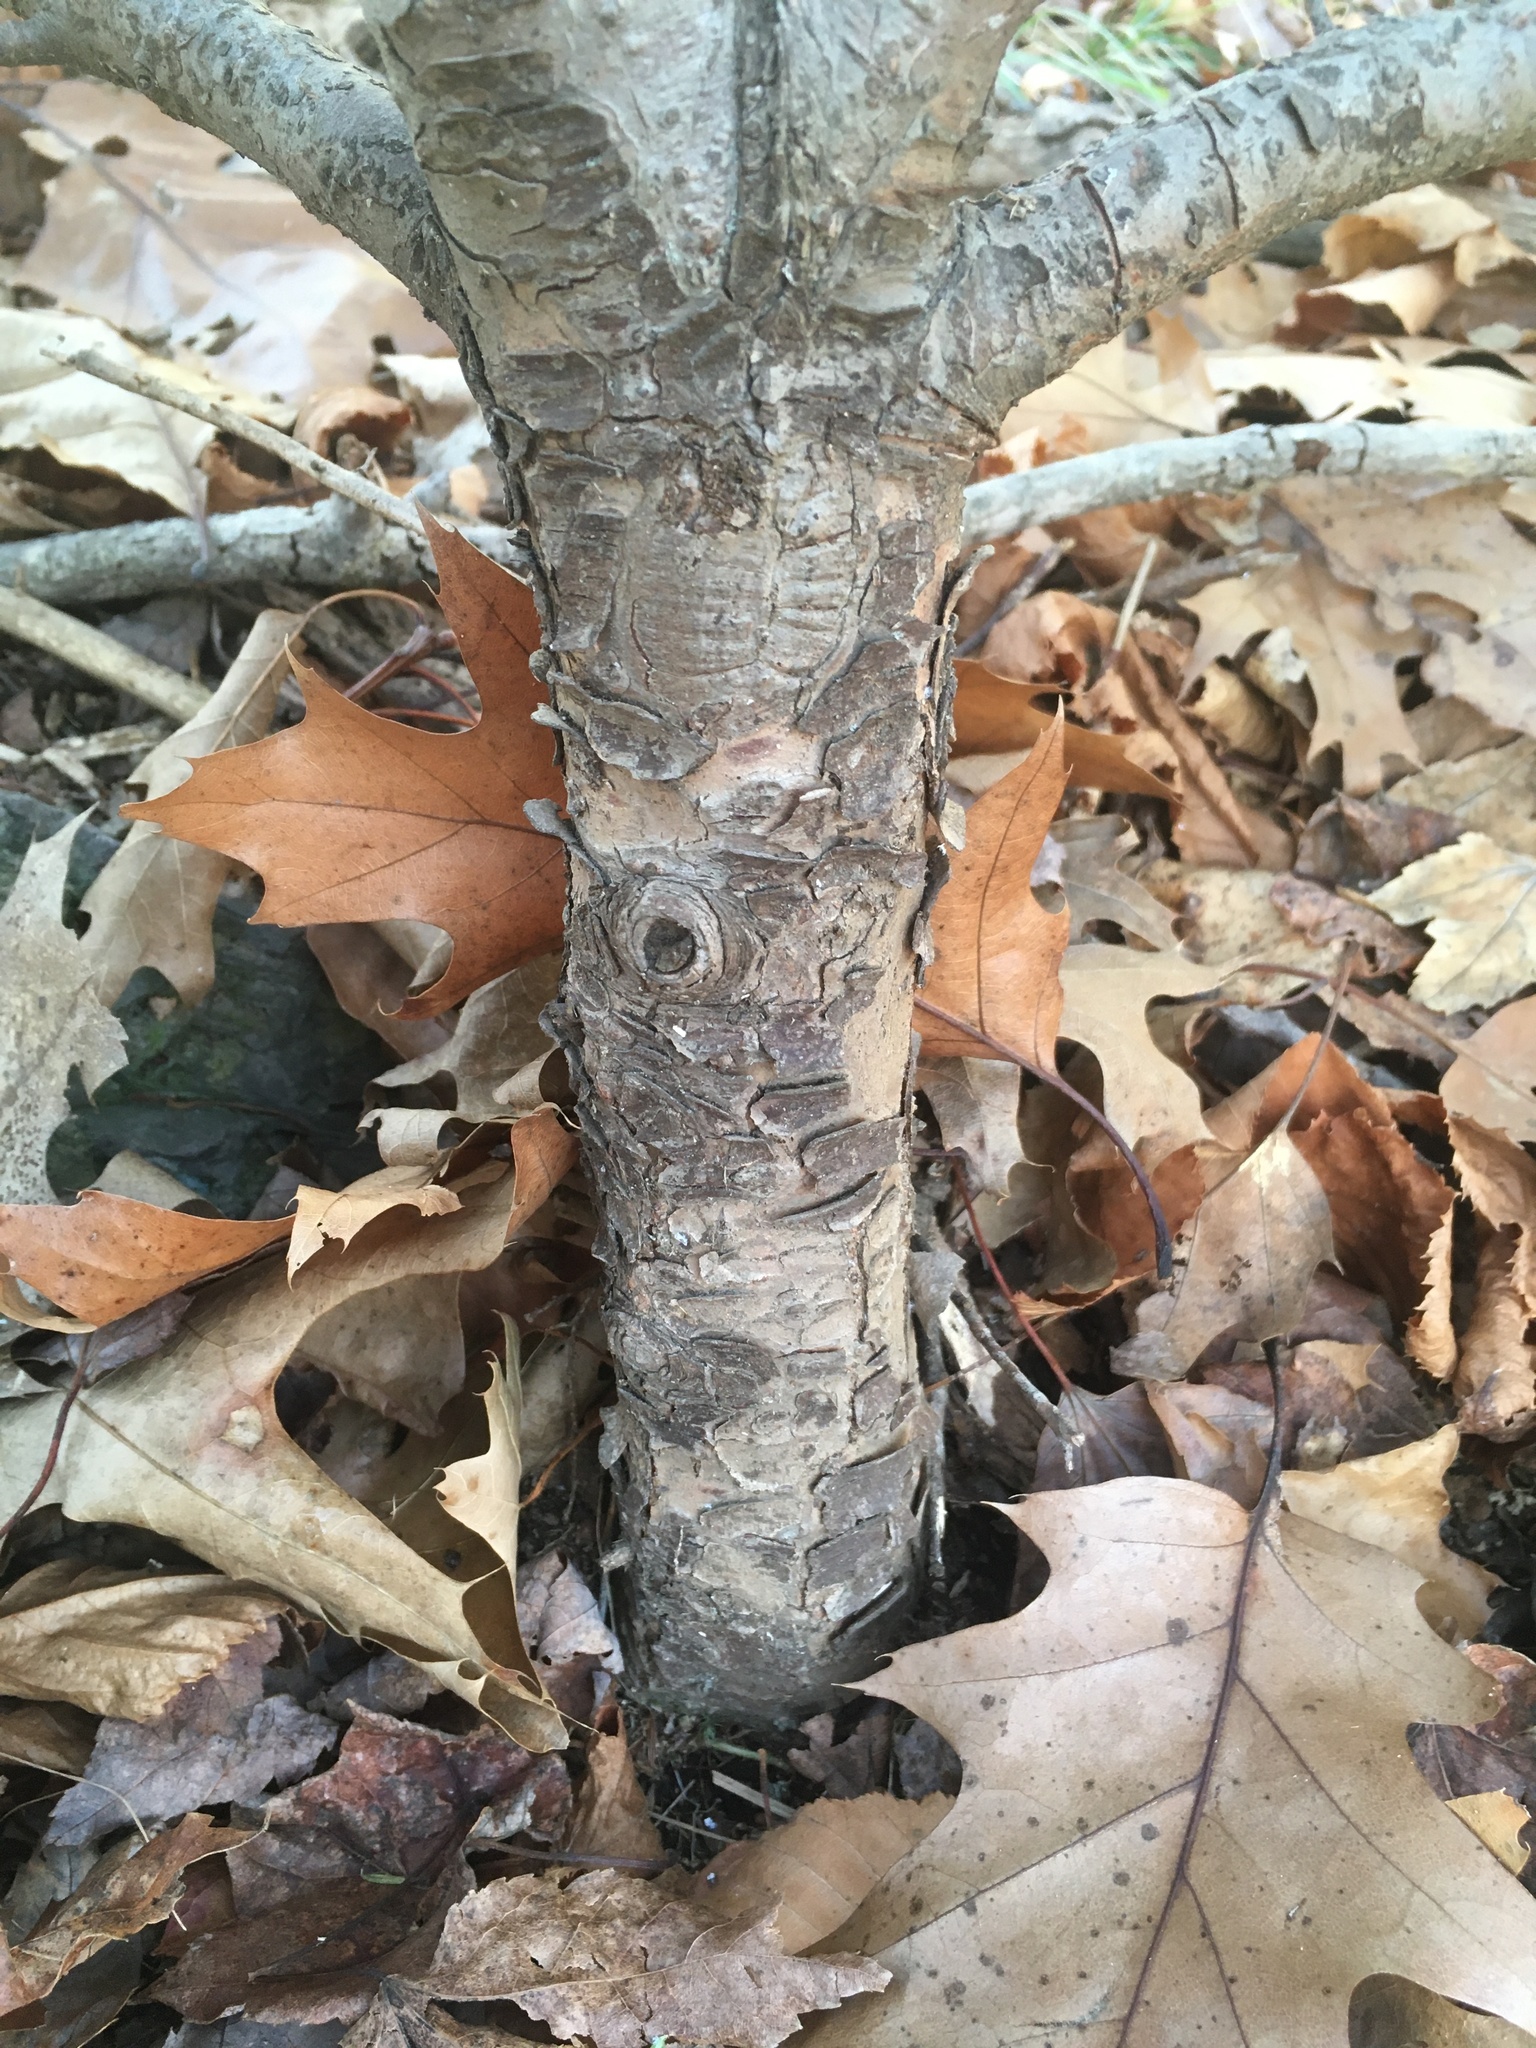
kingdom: Plantae
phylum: Tracheophyta
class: Pinopsida
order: Pinales
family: Pinaceae
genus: Tsuga
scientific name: Tsuga canadensis
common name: Eastern hemlock
